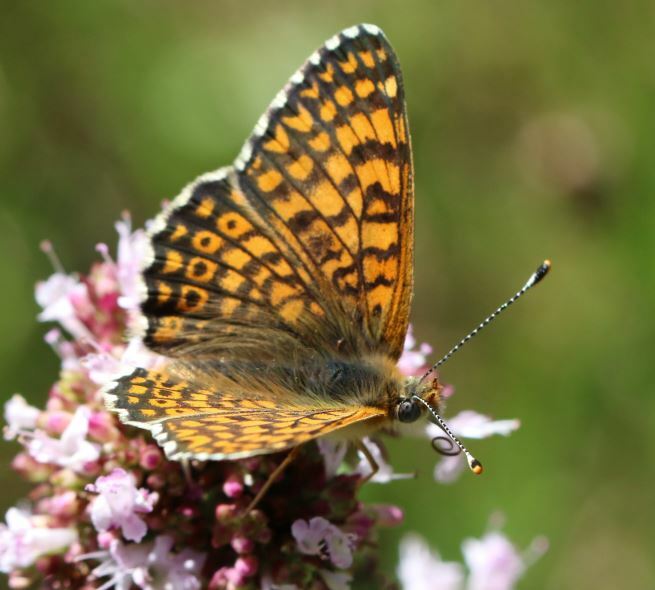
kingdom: Animalia
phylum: Arthropoda
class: Insecta
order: Lepidoptera
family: Nymphalidae
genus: Melitaea
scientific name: Melitaea cinxia
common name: Glanville fritillary
